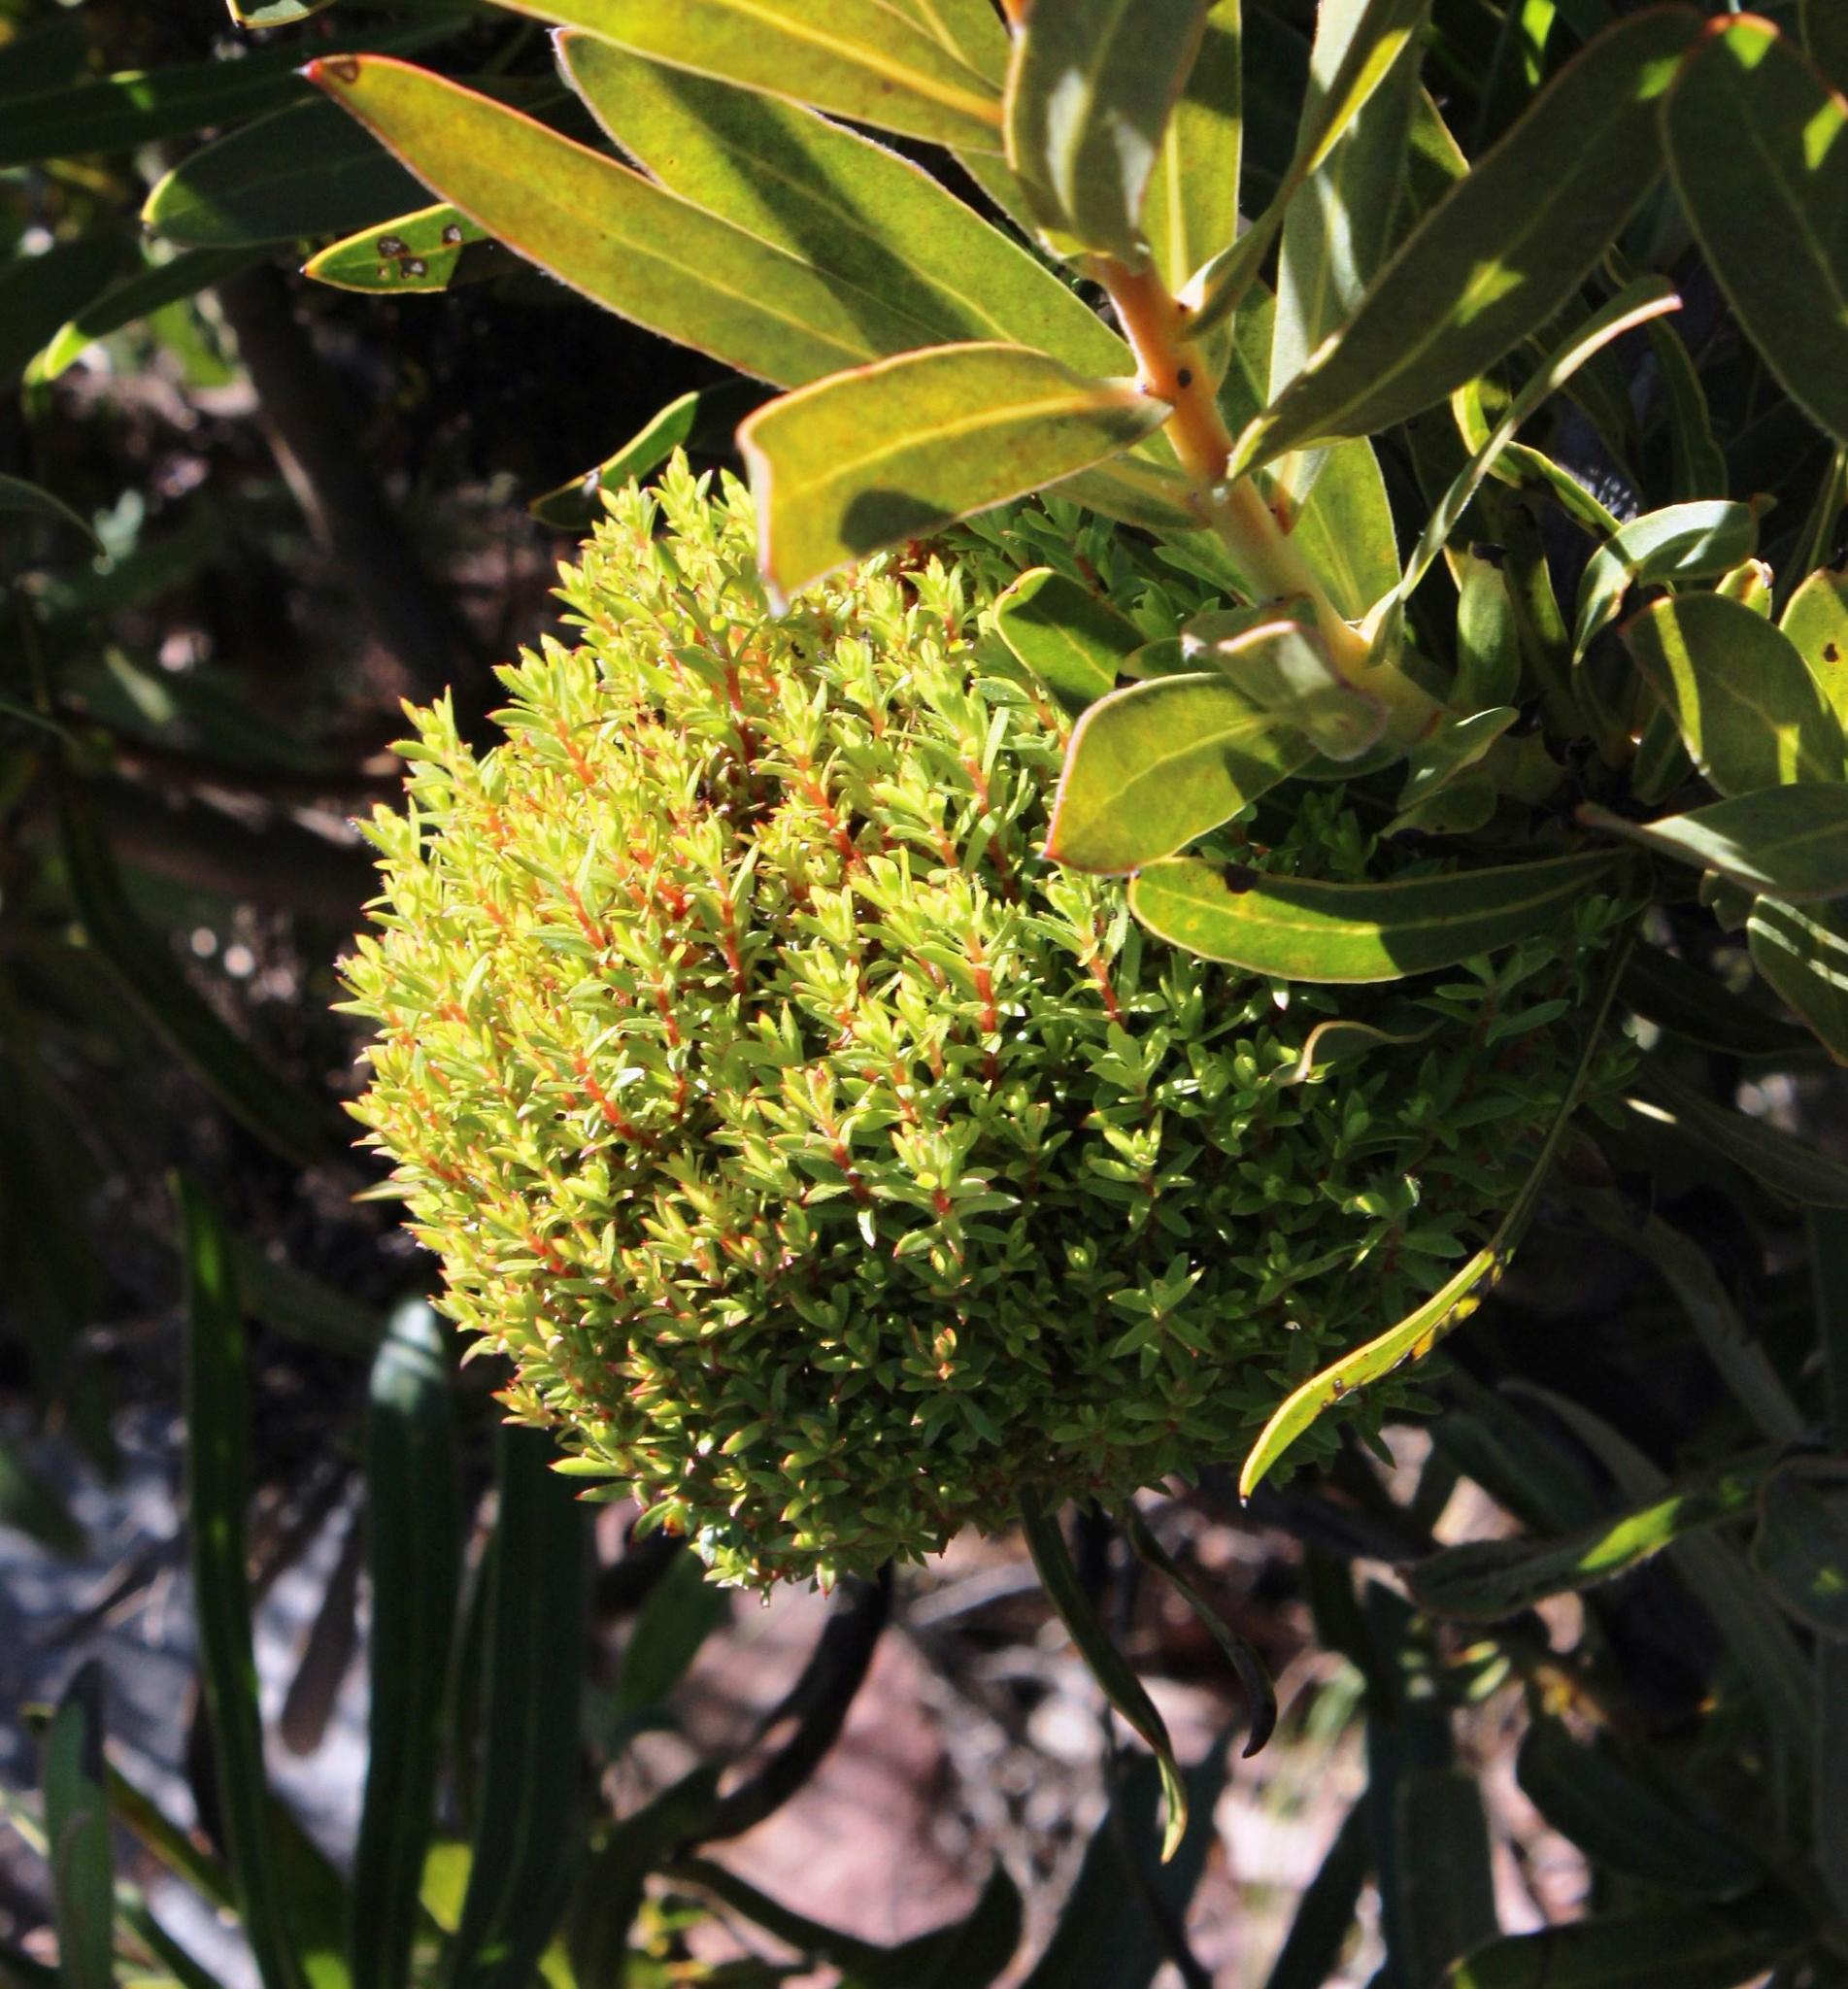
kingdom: Bacteria
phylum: Firmicutes
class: Bacilli
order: Acholeplasmatales
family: Acholeplasmataceae
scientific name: Acholeplasmataceae
